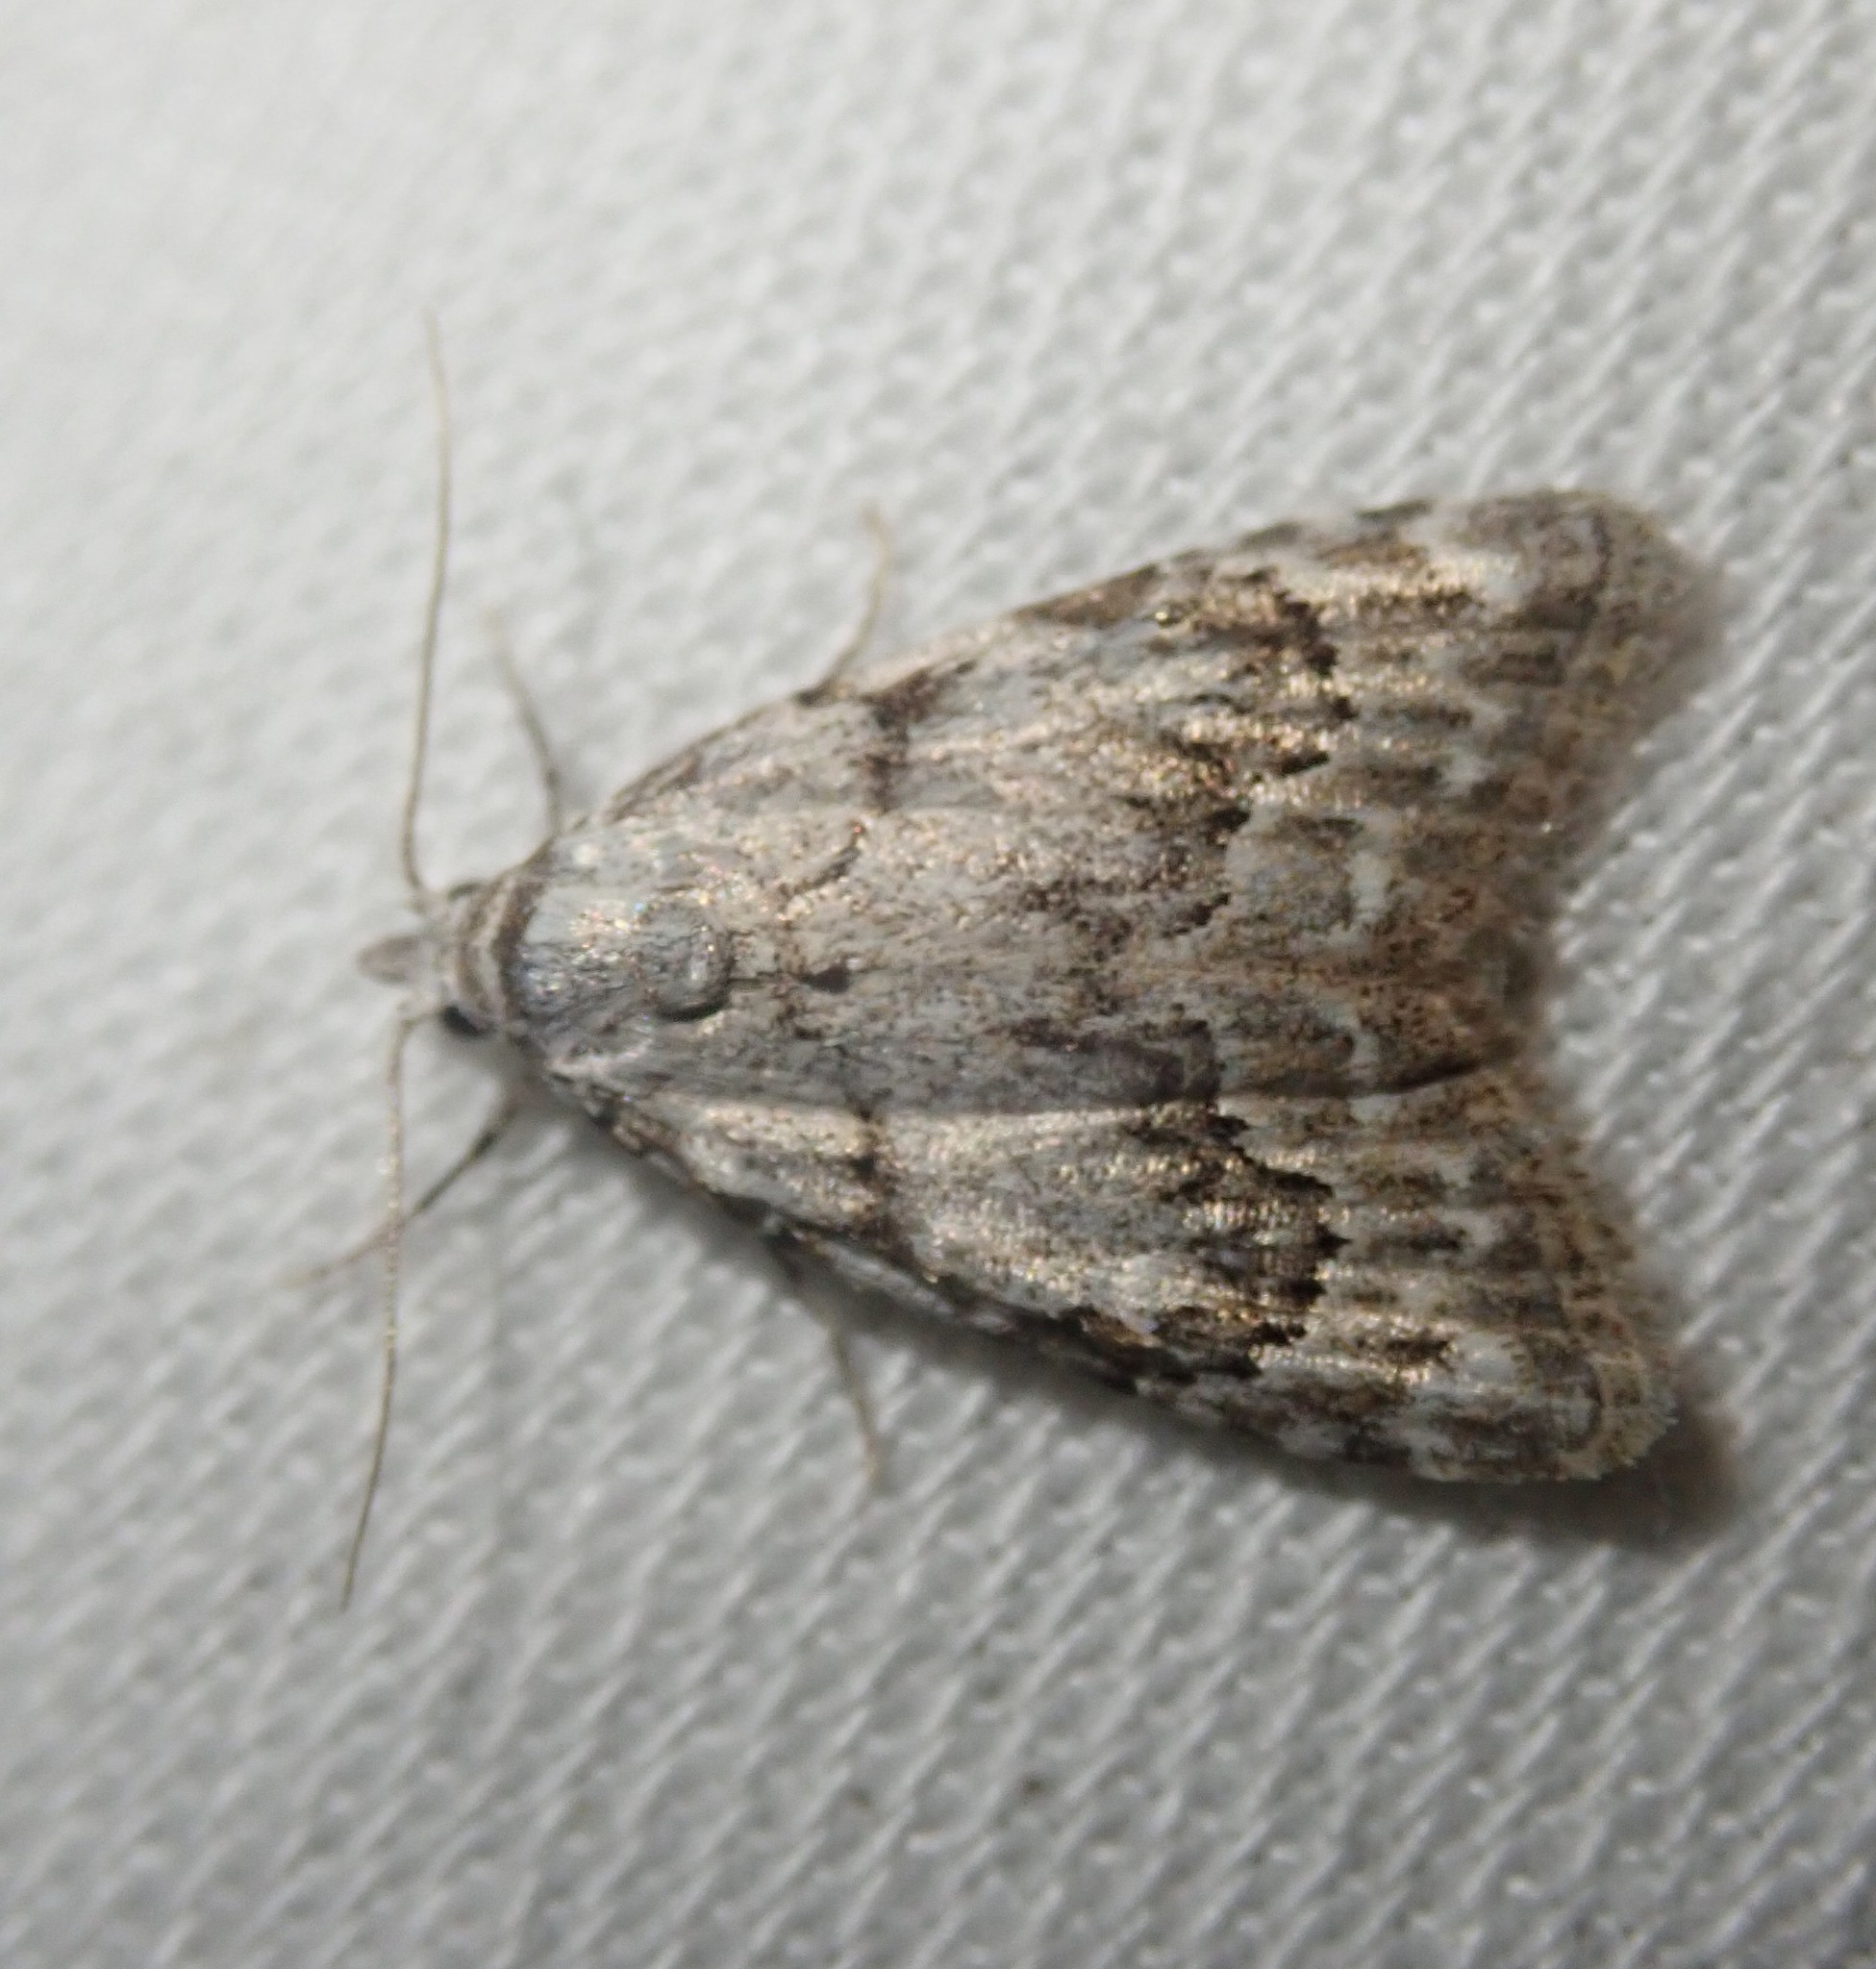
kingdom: Animalia
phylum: Arthropoda
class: Insecta
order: Lepidoptera
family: Nolidae
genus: Nola
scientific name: Nola confusalis
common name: Least black arches
